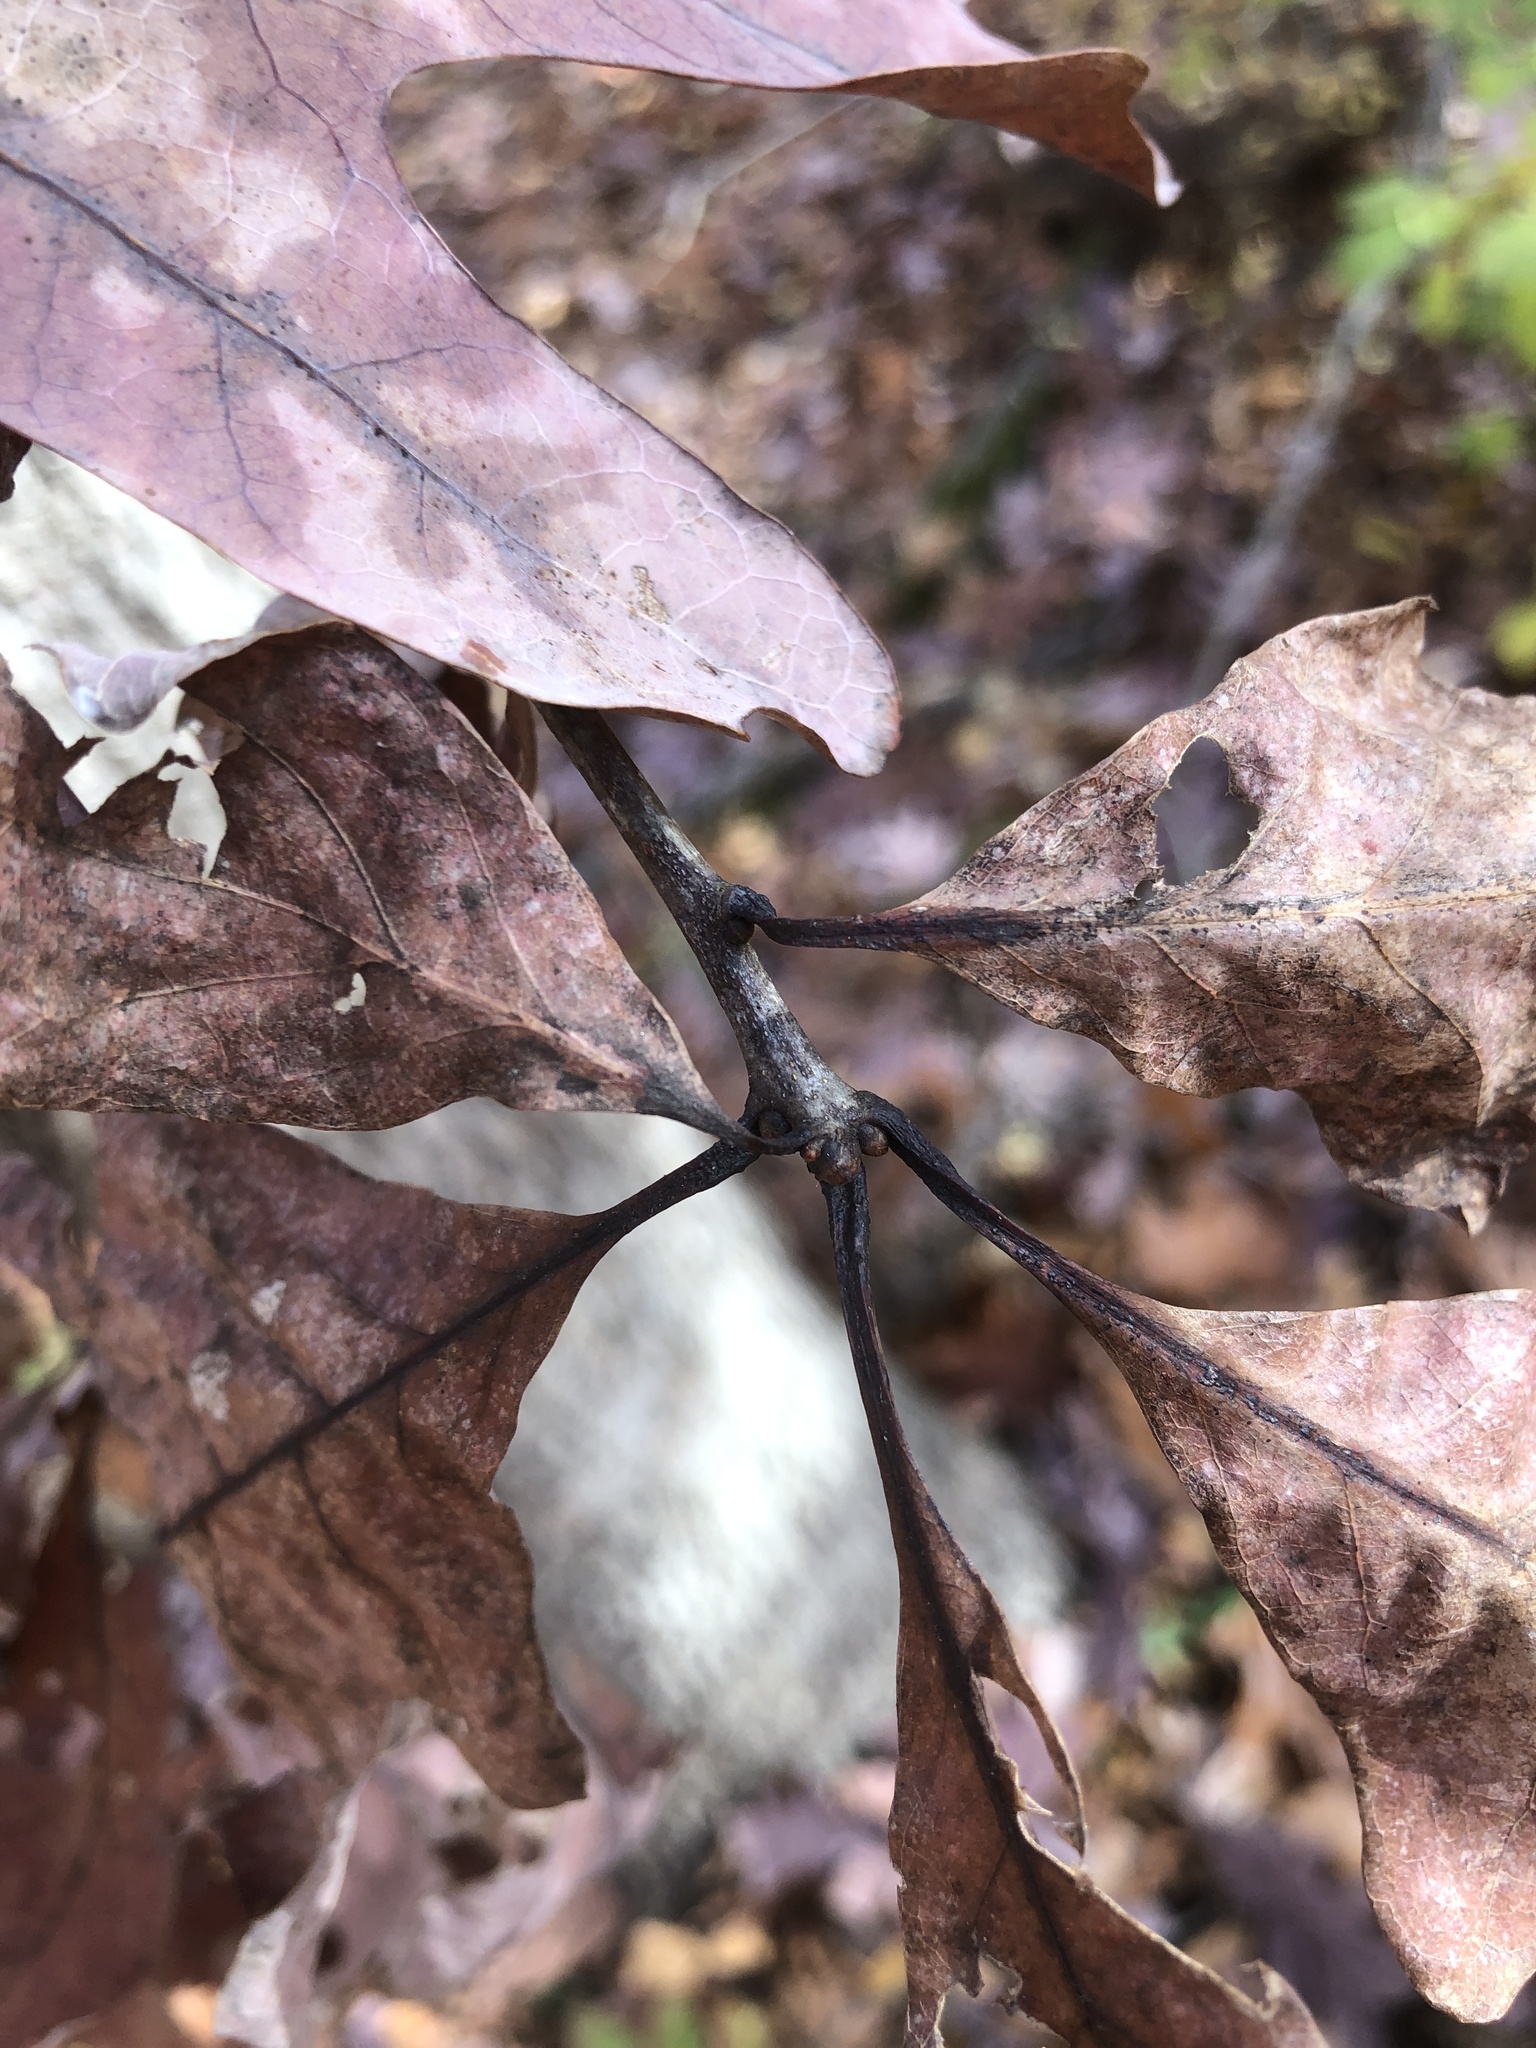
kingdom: Plantae
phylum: Tracheophyta
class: Magnoliopsida
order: Fagales
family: Fagaceae
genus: Quercus
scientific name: Quercus alba
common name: White oak
